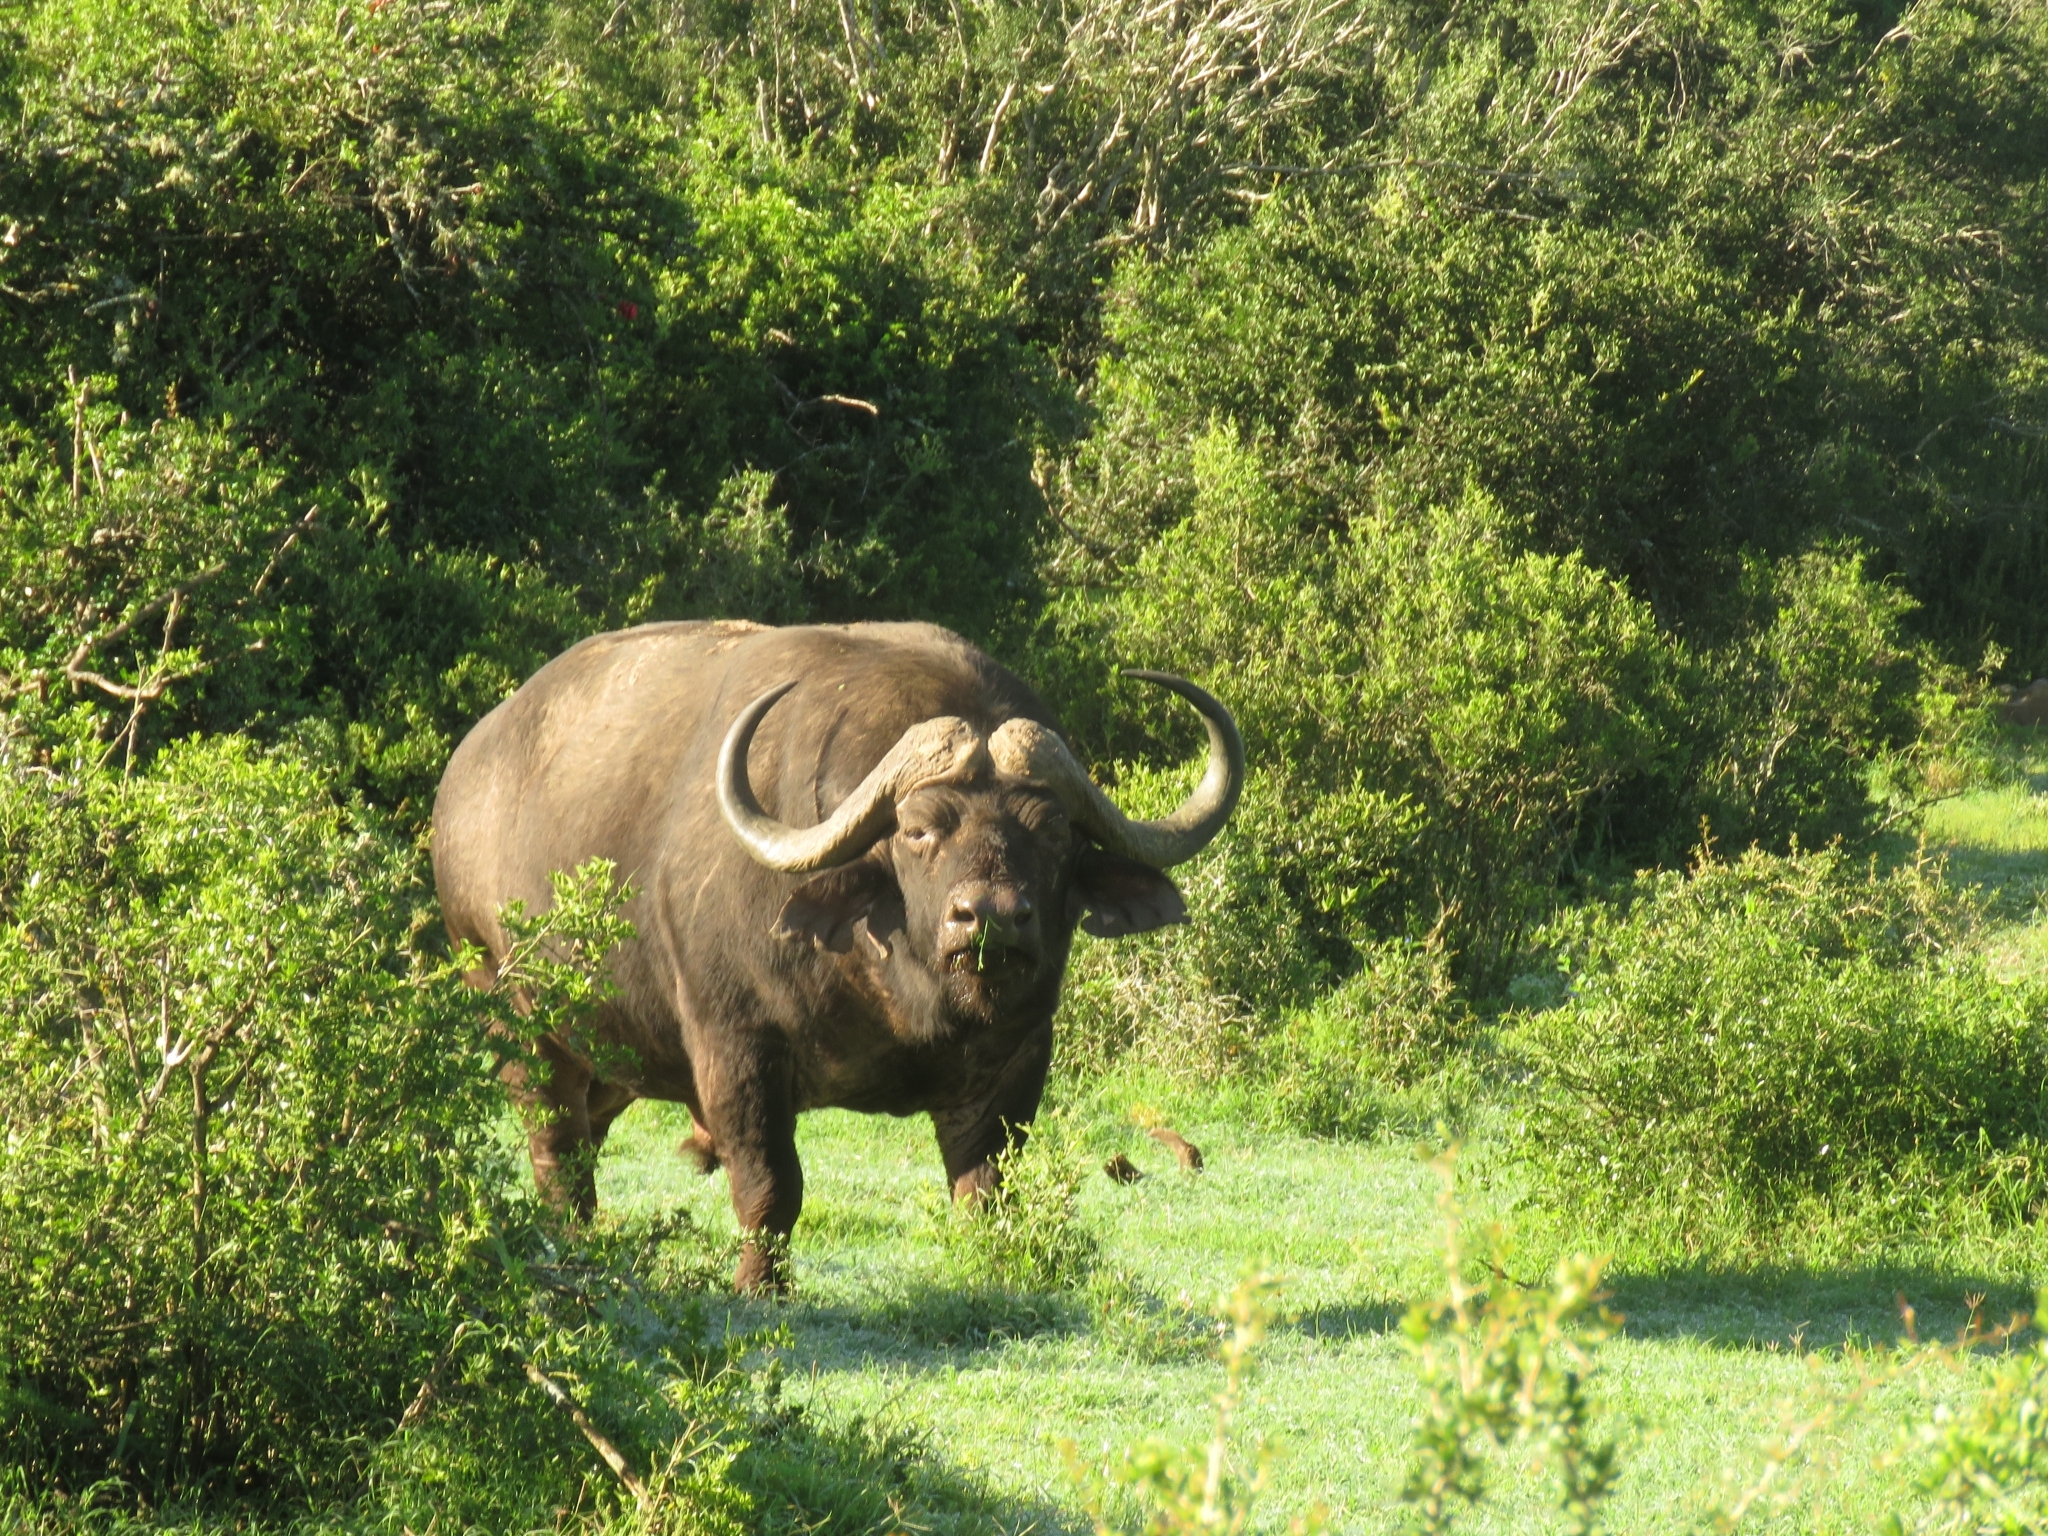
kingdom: Animalia
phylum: Chordata
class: Mammalia
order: Artiodactyla
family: Bovidae
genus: Syncerus
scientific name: Syncerus caffer
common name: African buffalo
